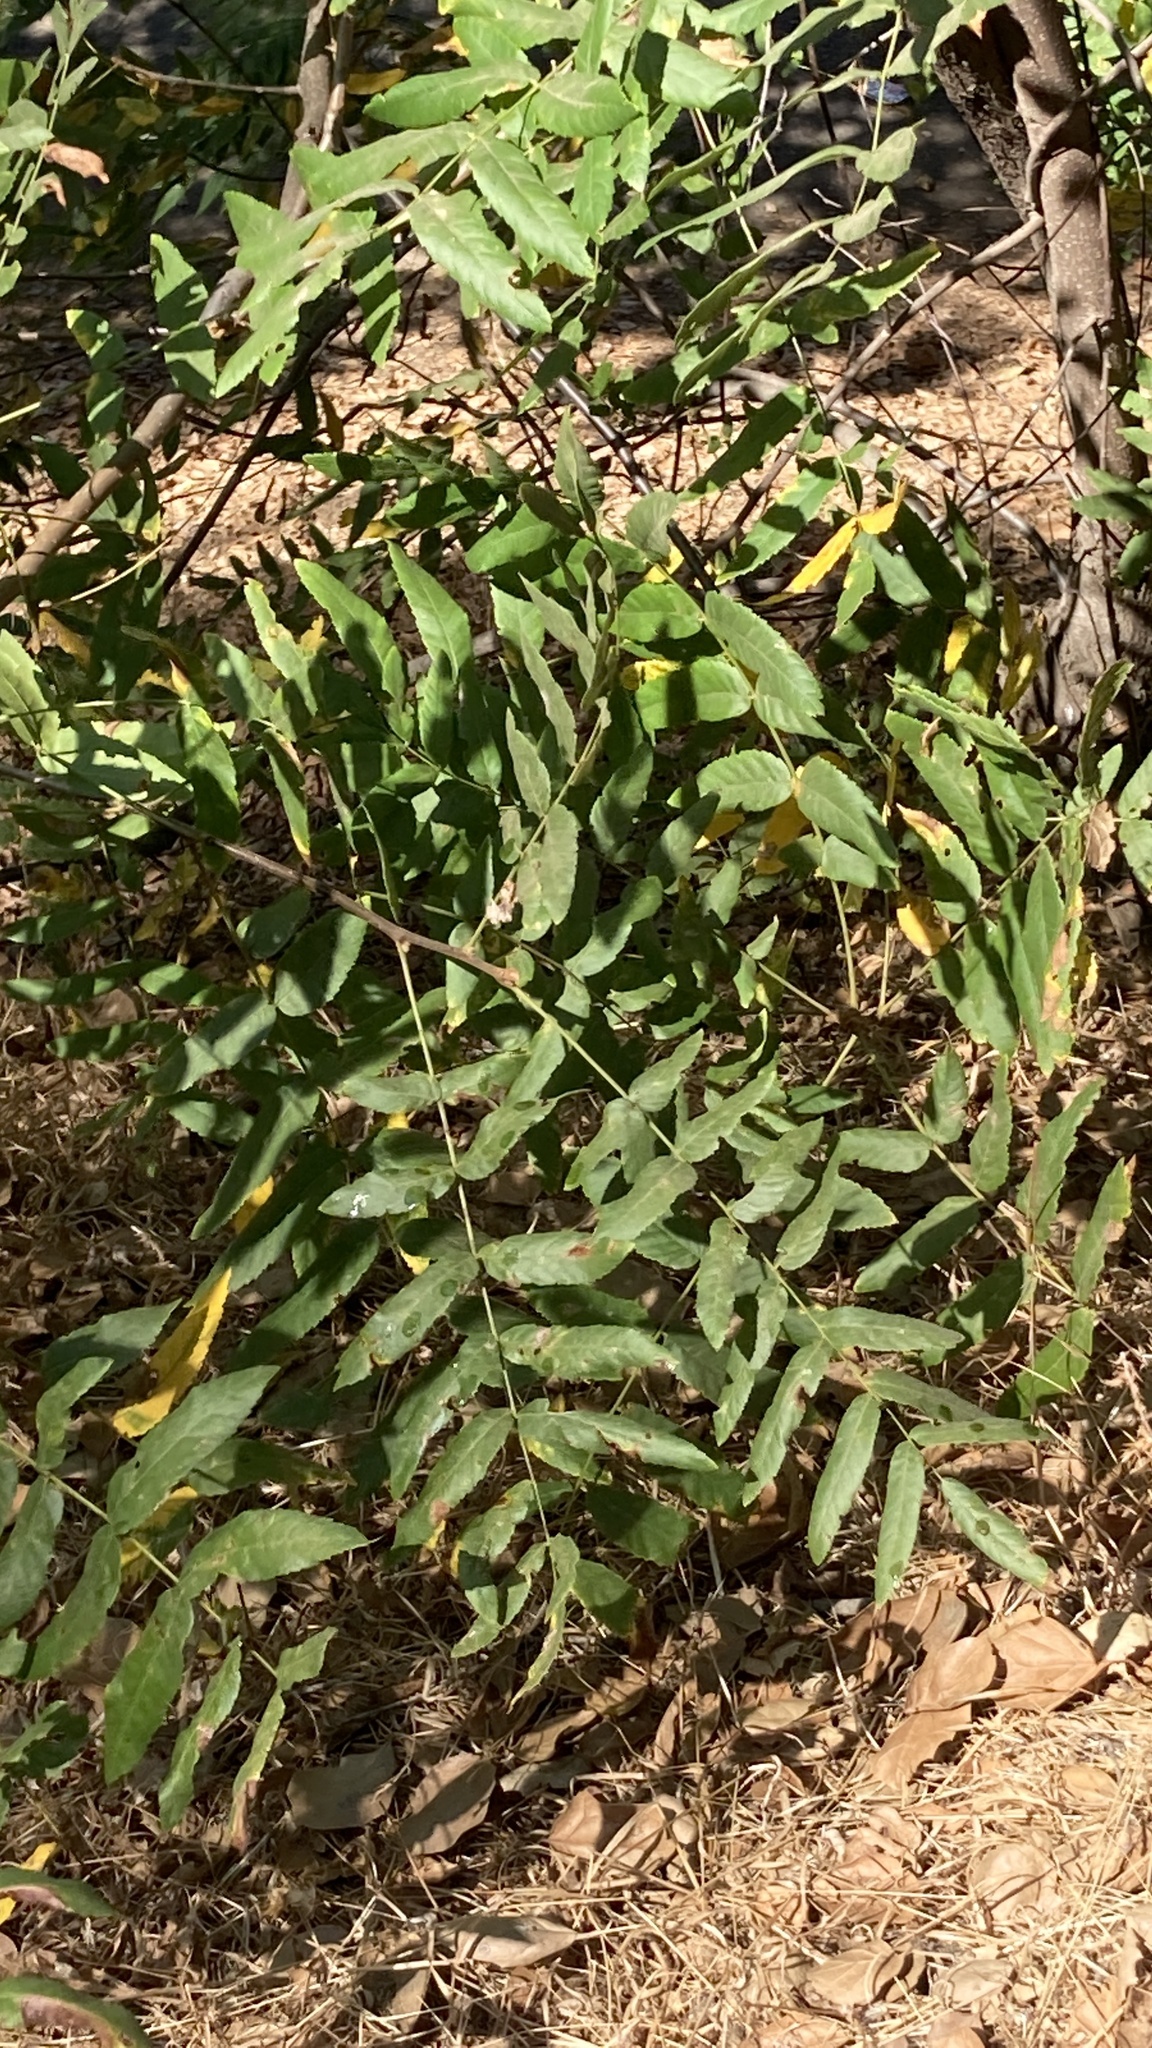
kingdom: Plantae
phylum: Tracheophyta
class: Magnoliopsida
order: Fagales
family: Juglandaceae
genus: Juglans
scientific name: Juglans californica
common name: Southern california black walnut
